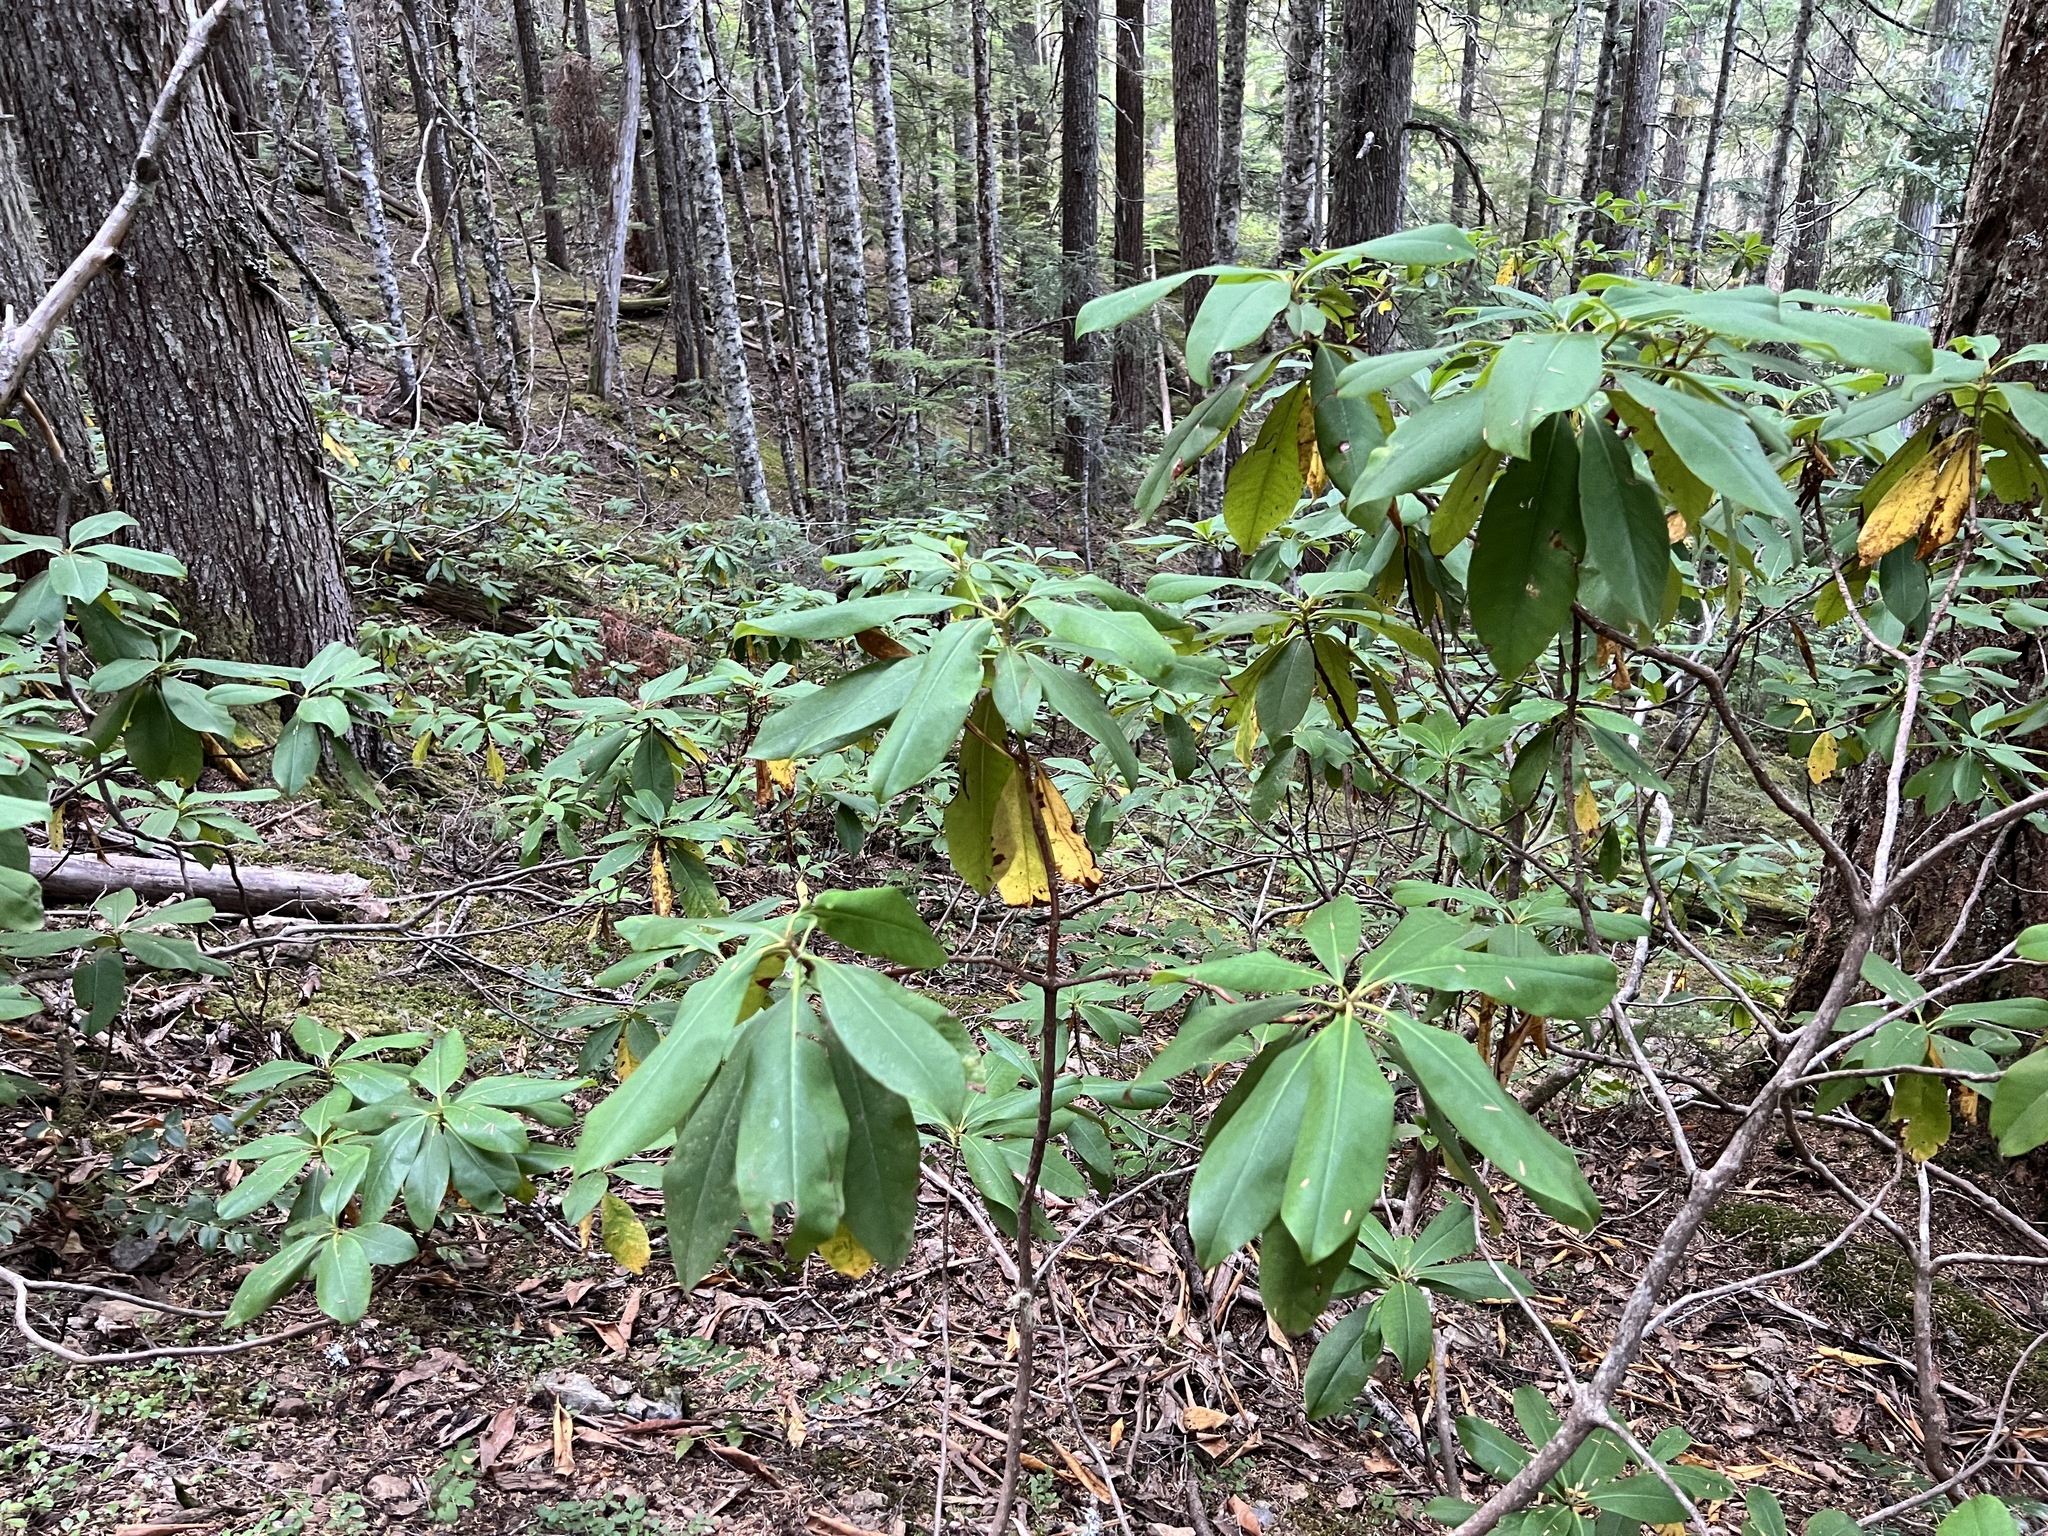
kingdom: Plantae
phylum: Tracheophyta
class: Magnoliopsida
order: Ericales
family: Ericaceae
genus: Rhododendron
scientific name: Rhododendron macrophyllum
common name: California rose bay
